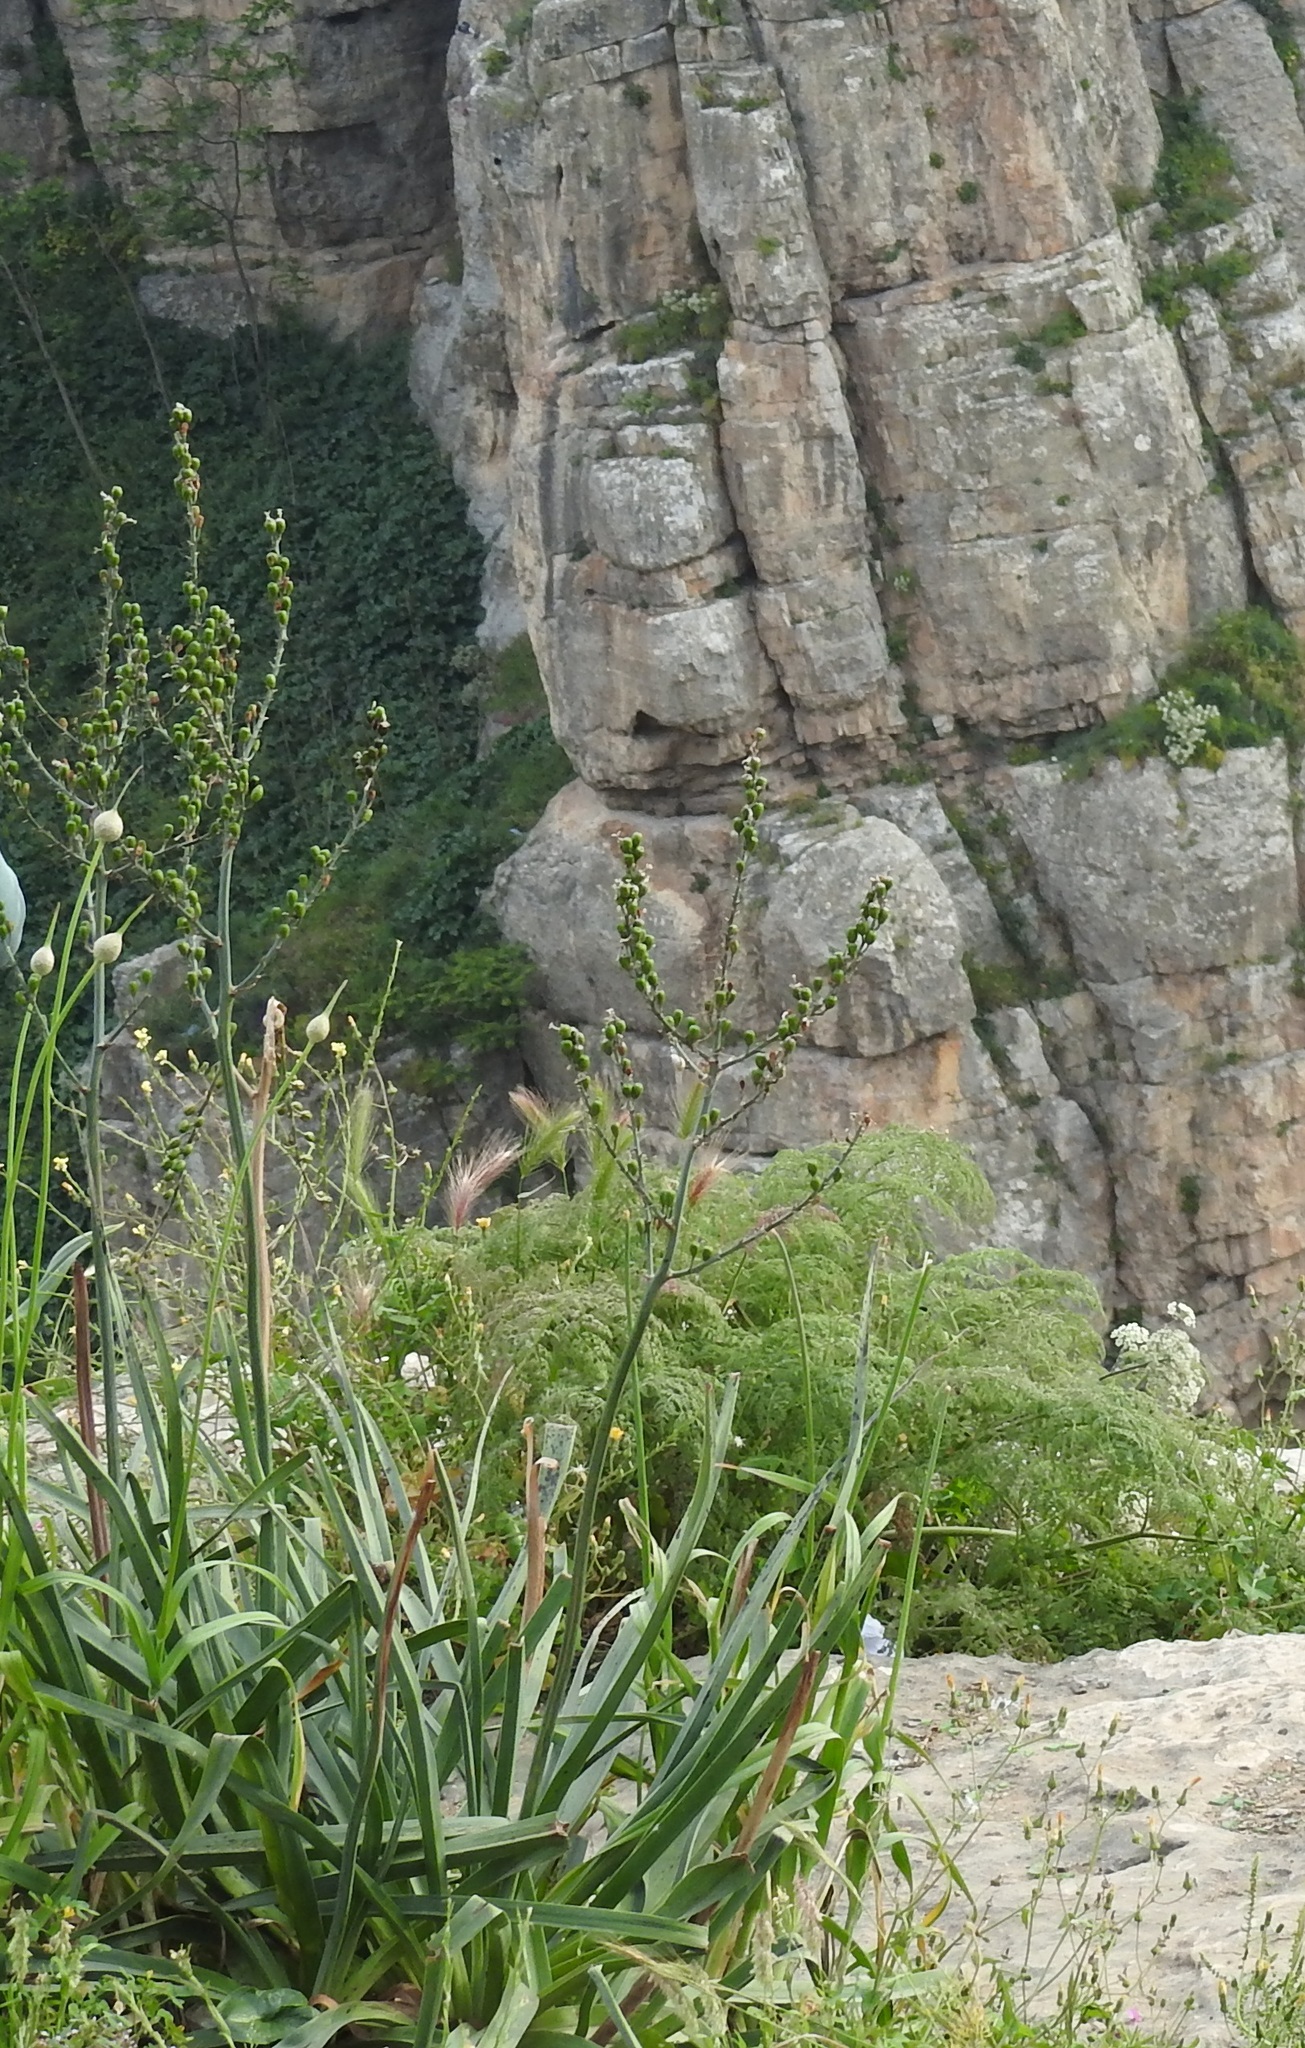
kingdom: Plantae
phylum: Tracheophyta
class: Liliopsida
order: Asparagales
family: Asphodelaceae
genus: Asphodelus
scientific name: Asphodelus ramosus
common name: Silverrod
